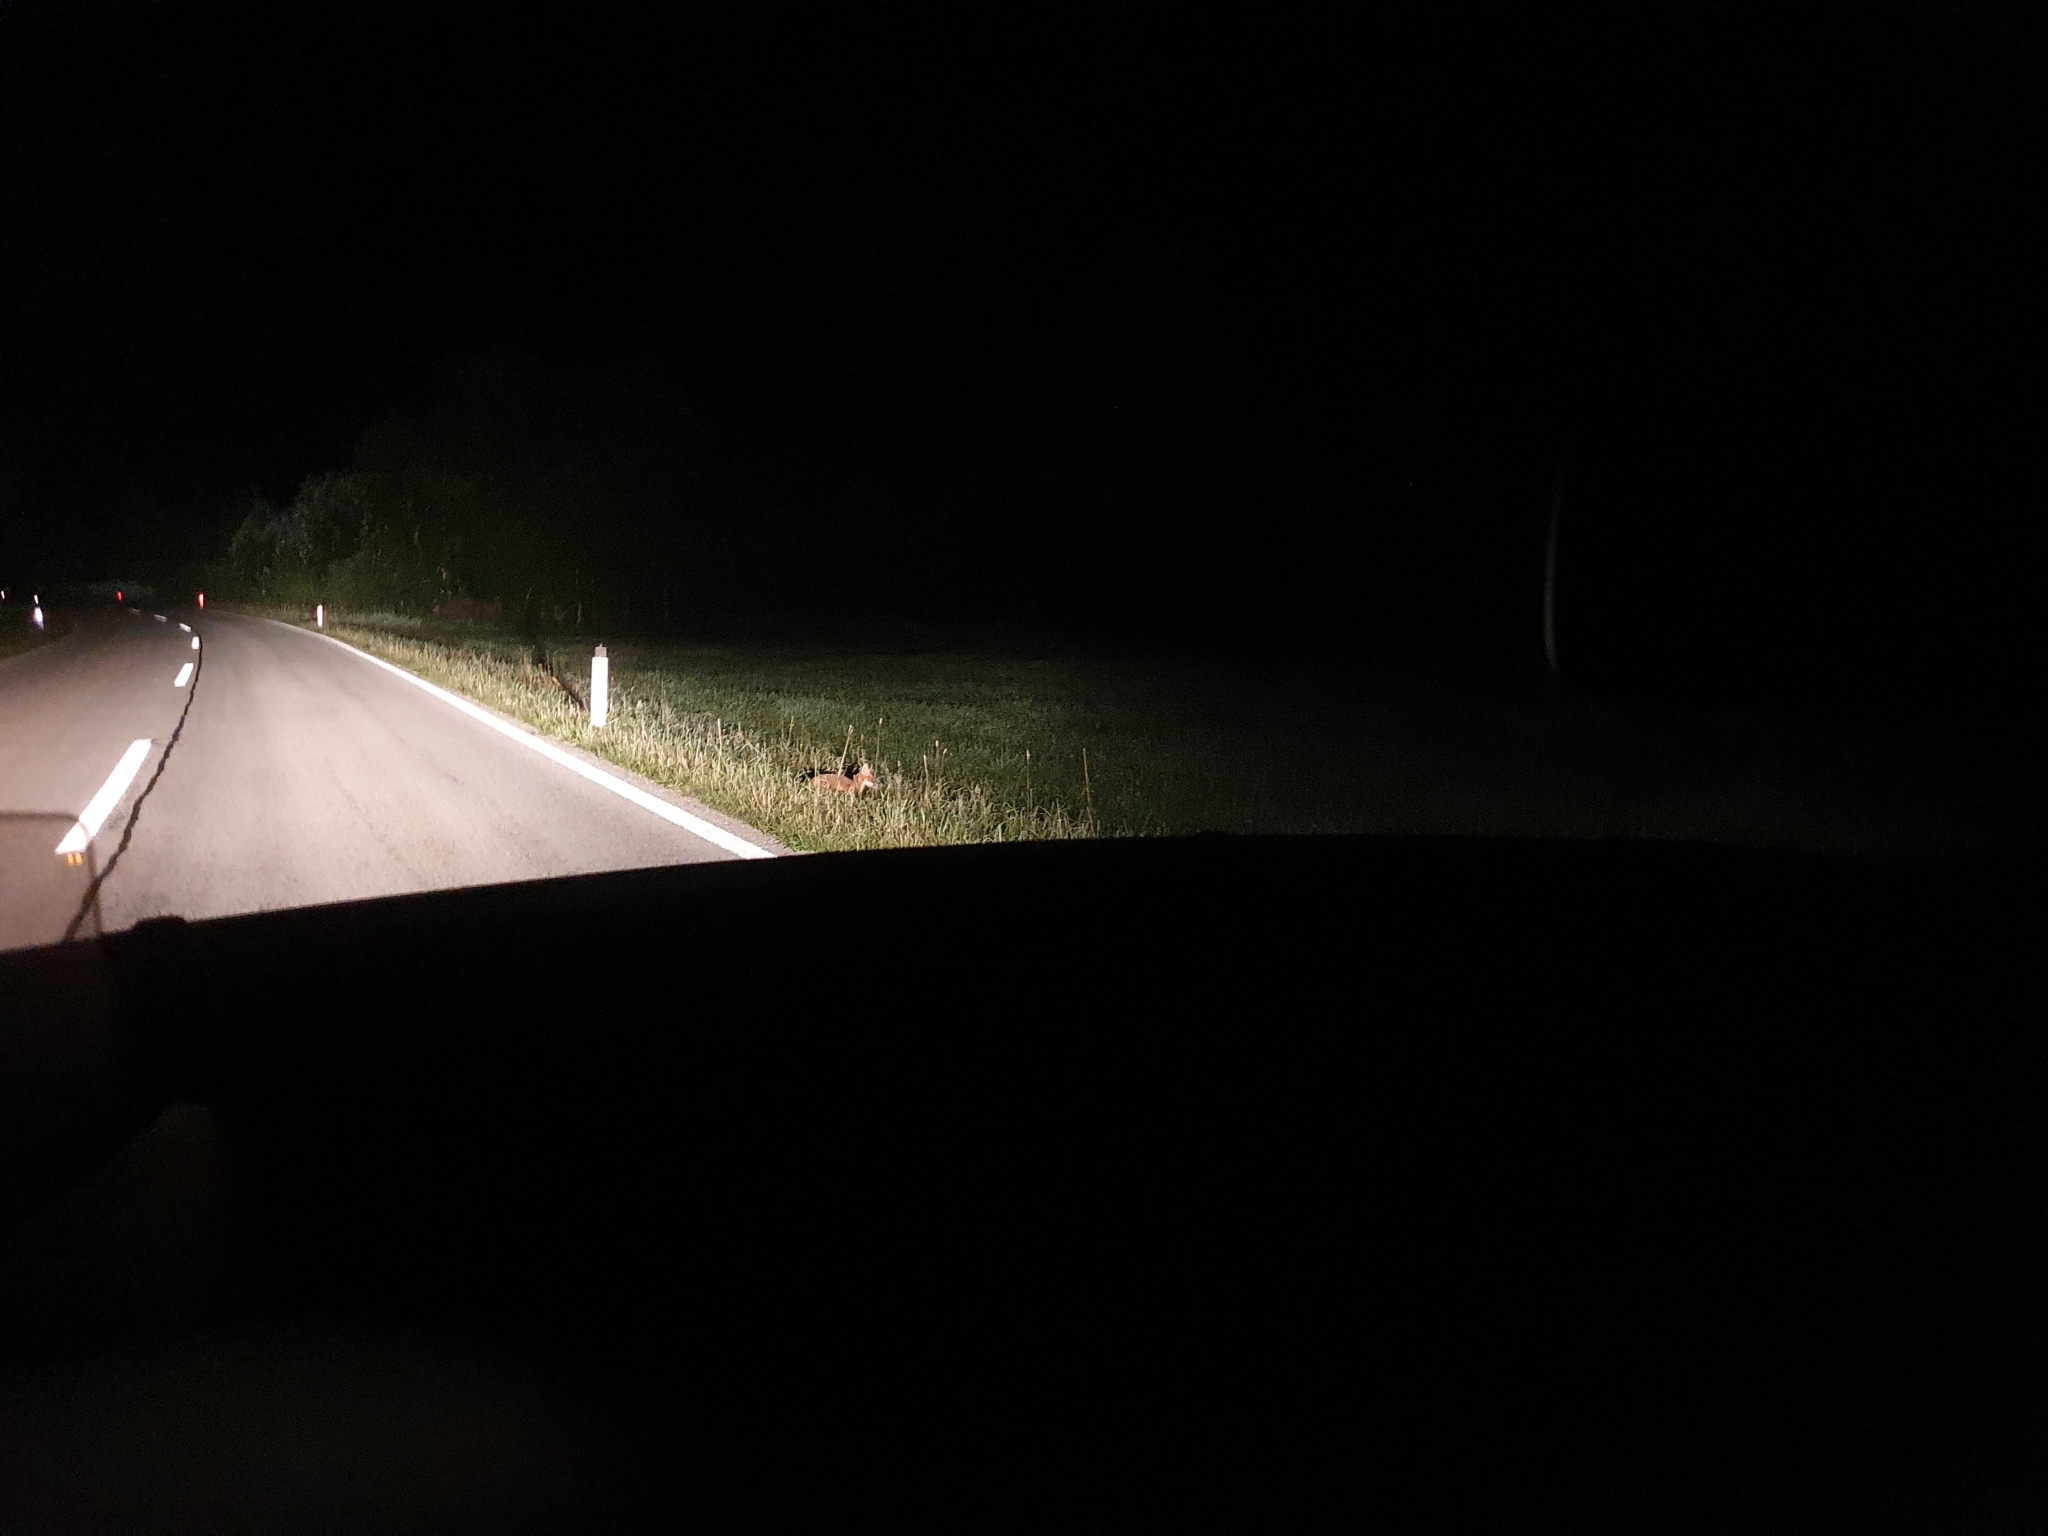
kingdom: Animalia
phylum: Chordata
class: Mammalia
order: Carnivora
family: Canidae
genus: Vulpes
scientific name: Vulpes vulpes
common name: Red fox
